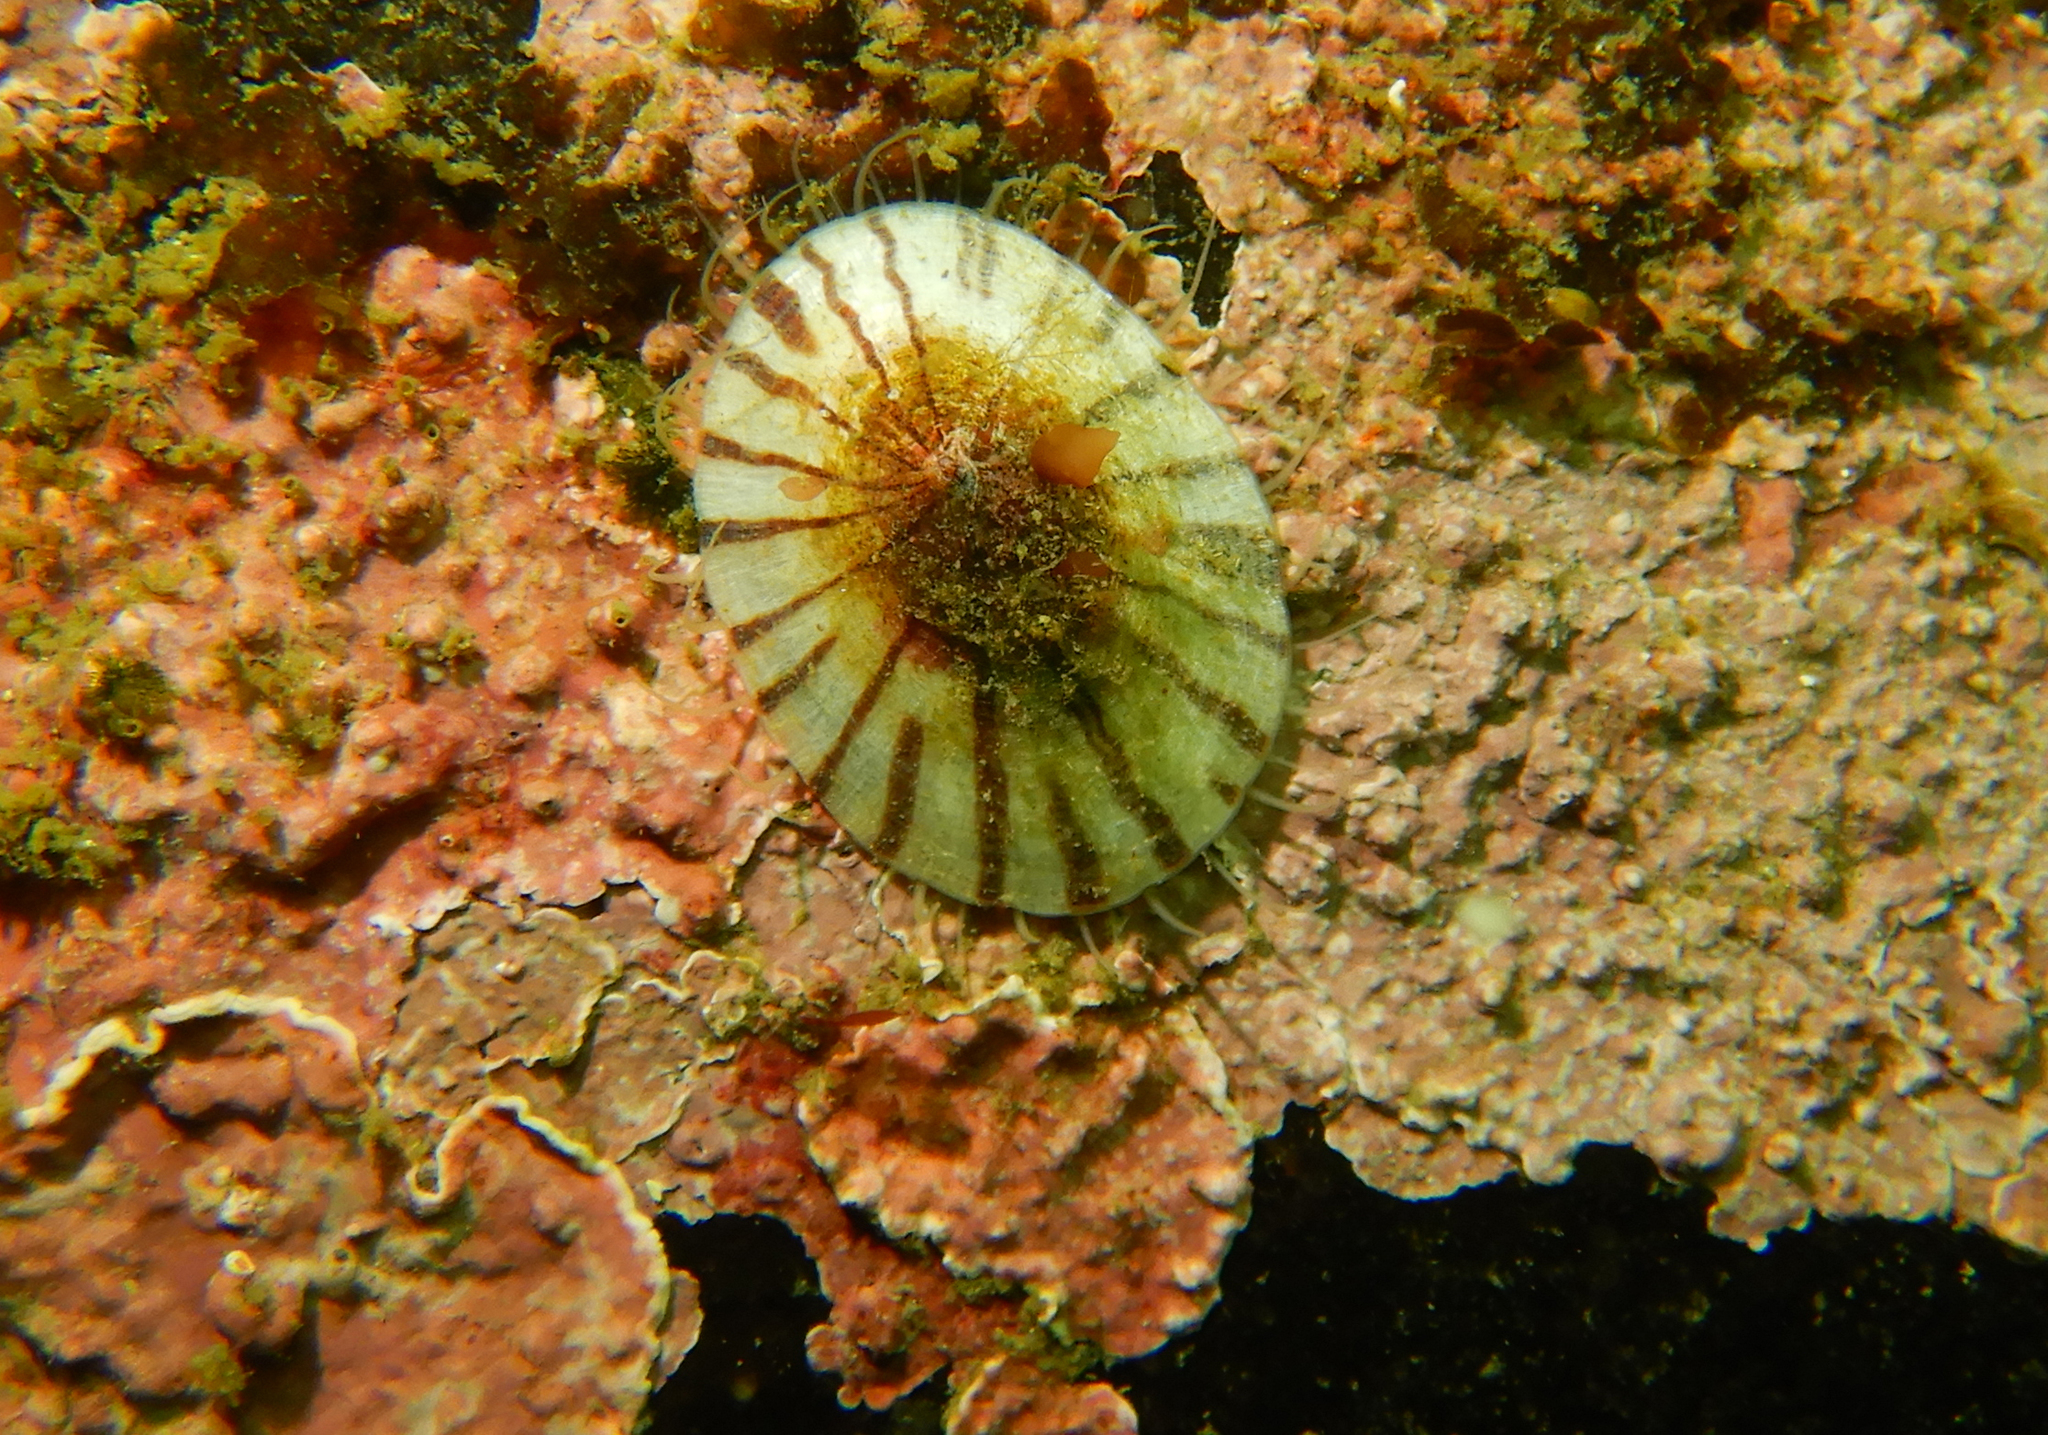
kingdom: Animalia
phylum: Mollusca
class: Gastropoda
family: Nacellidae
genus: Nacella
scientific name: Nacella deaurata
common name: Golden limpet
